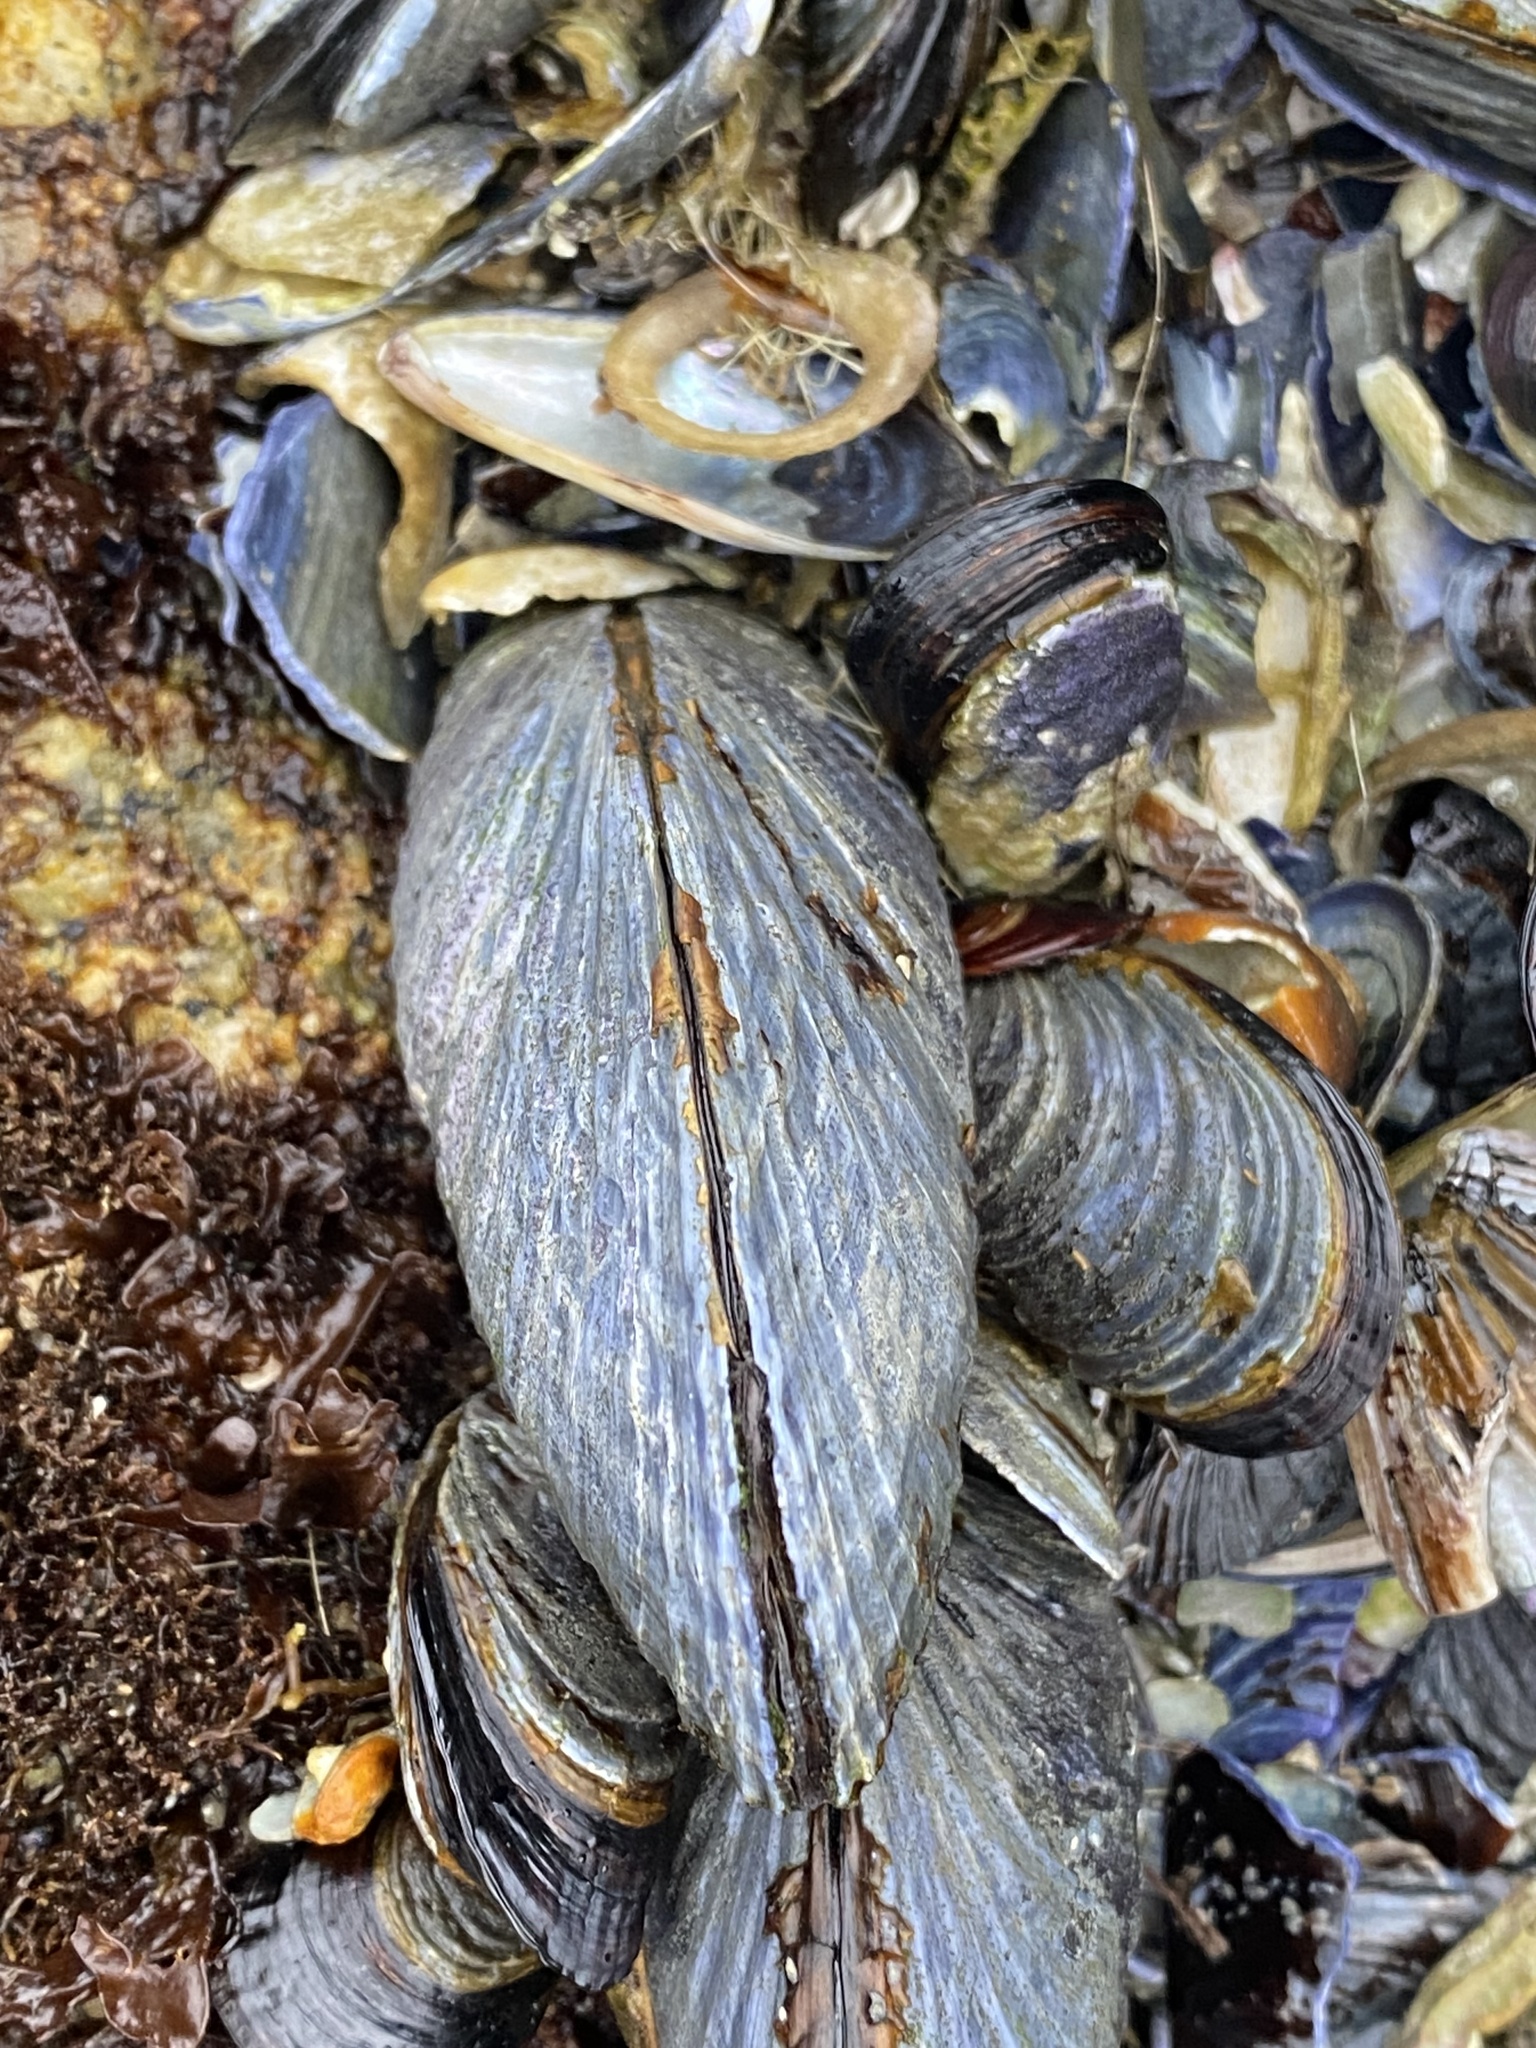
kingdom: Animalia
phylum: Mollusca
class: Bivalvia
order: Mytilida
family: Mytilidae
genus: Mytilus
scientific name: Mytilus californianus
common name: California mussel
